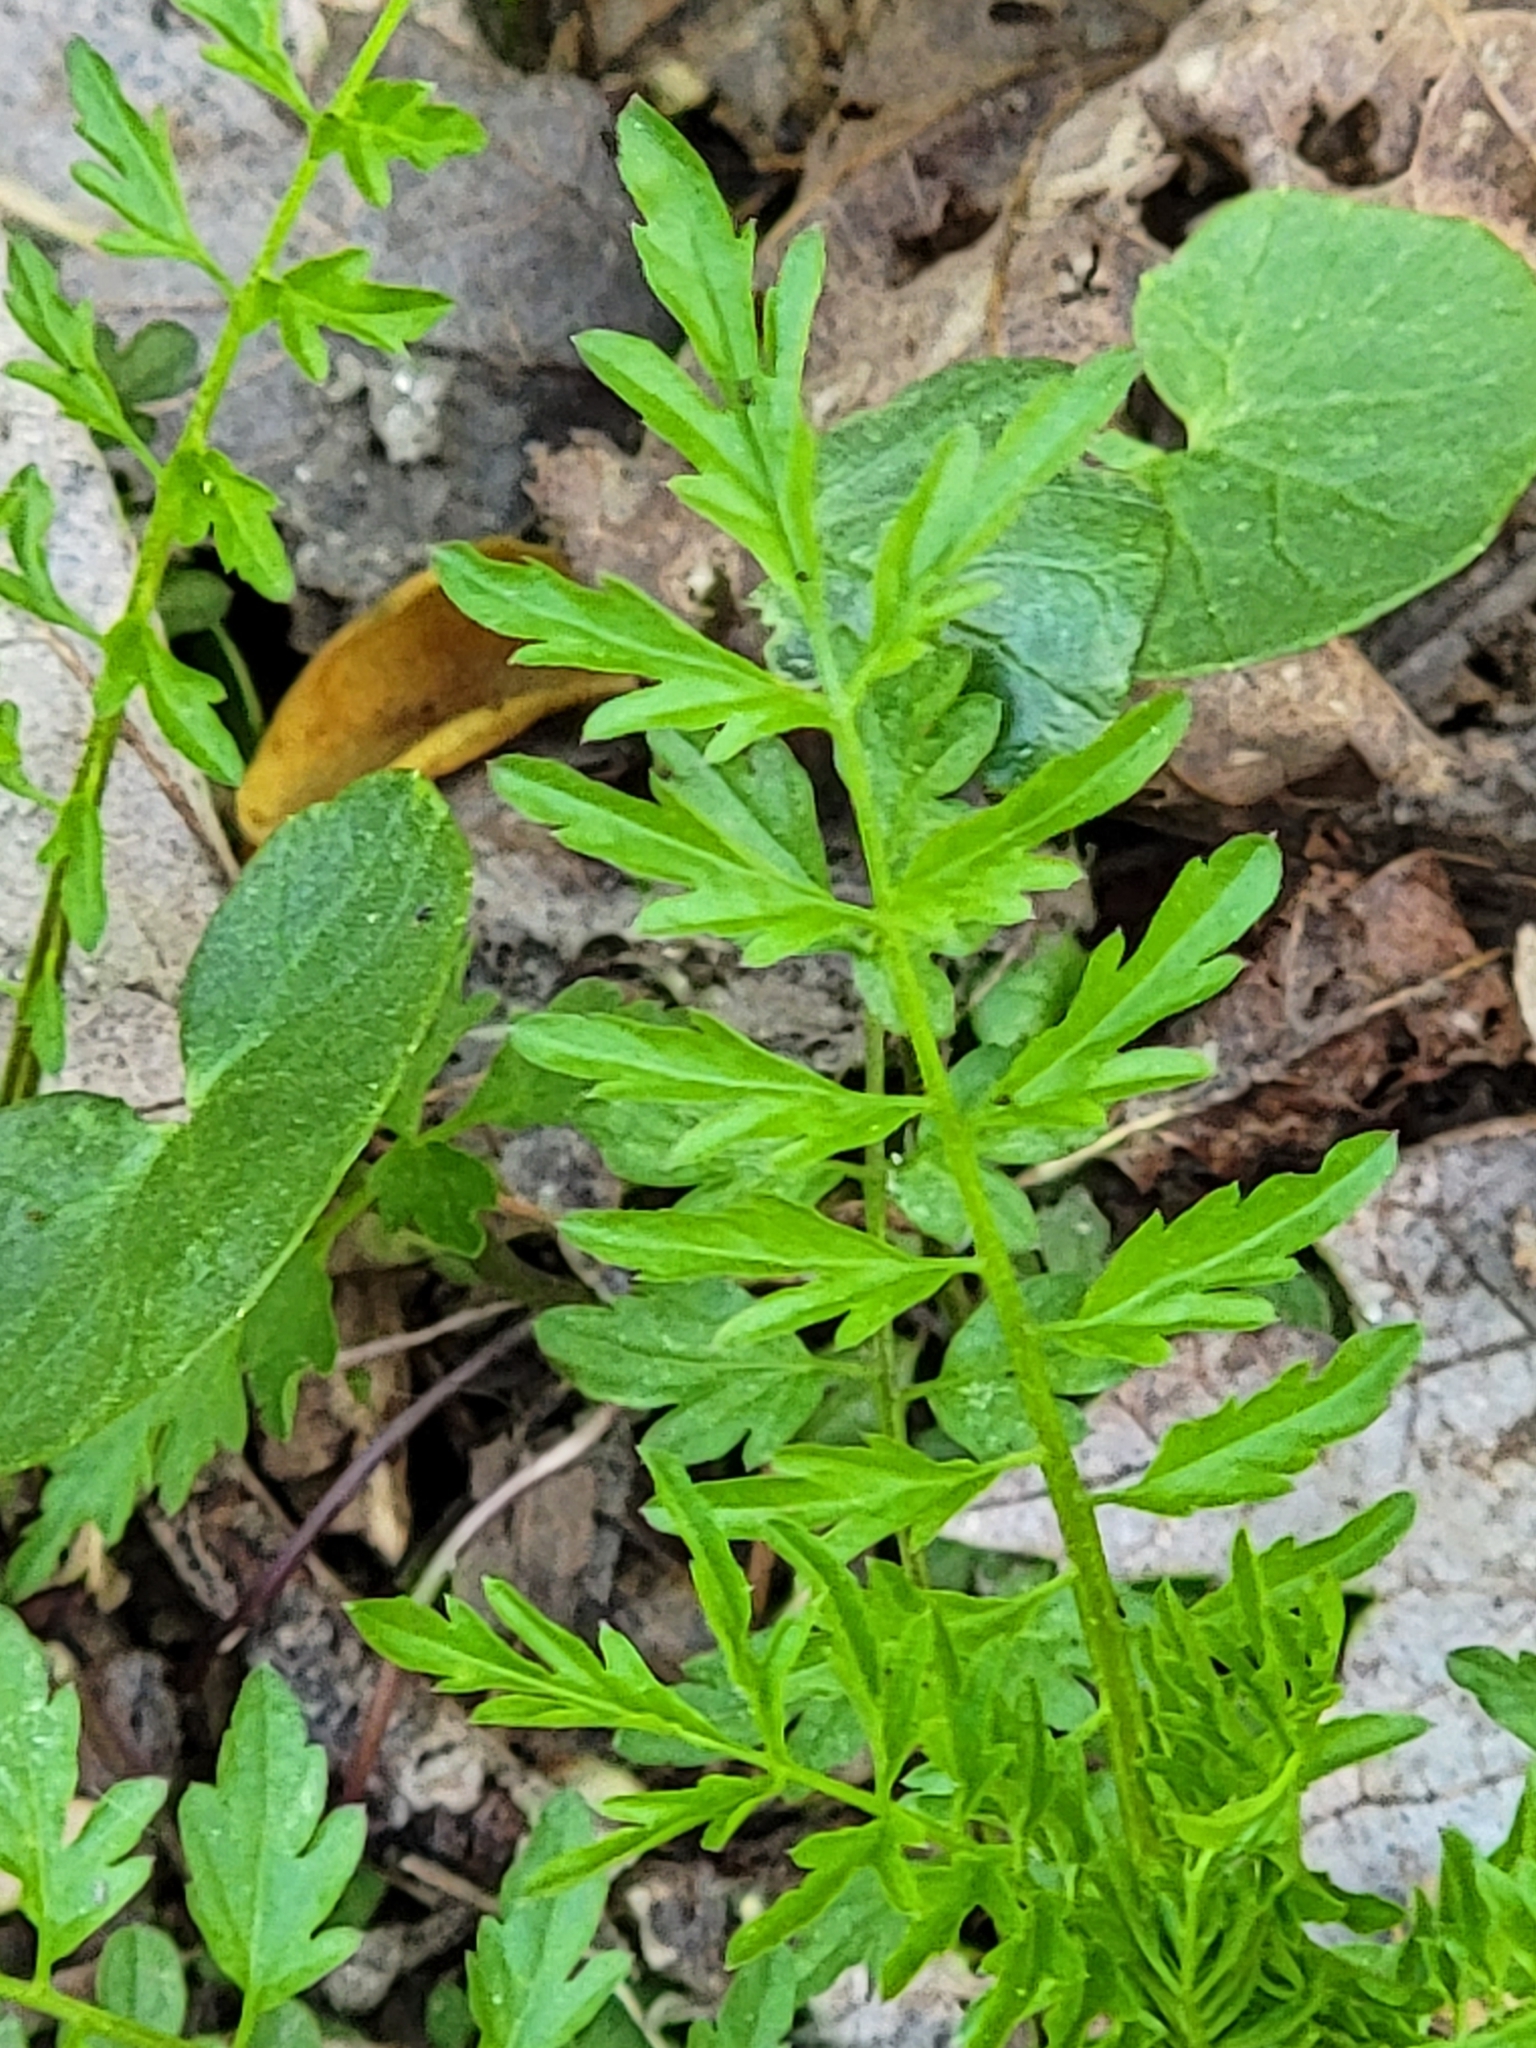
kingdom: Plantae
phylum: Tracheophyta
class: Magnoliopsida
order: Brassicales
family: Brassicaceae
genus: Cardamine
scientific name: Cardamine impatiens
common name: Narrow-leaved bitter-cress
